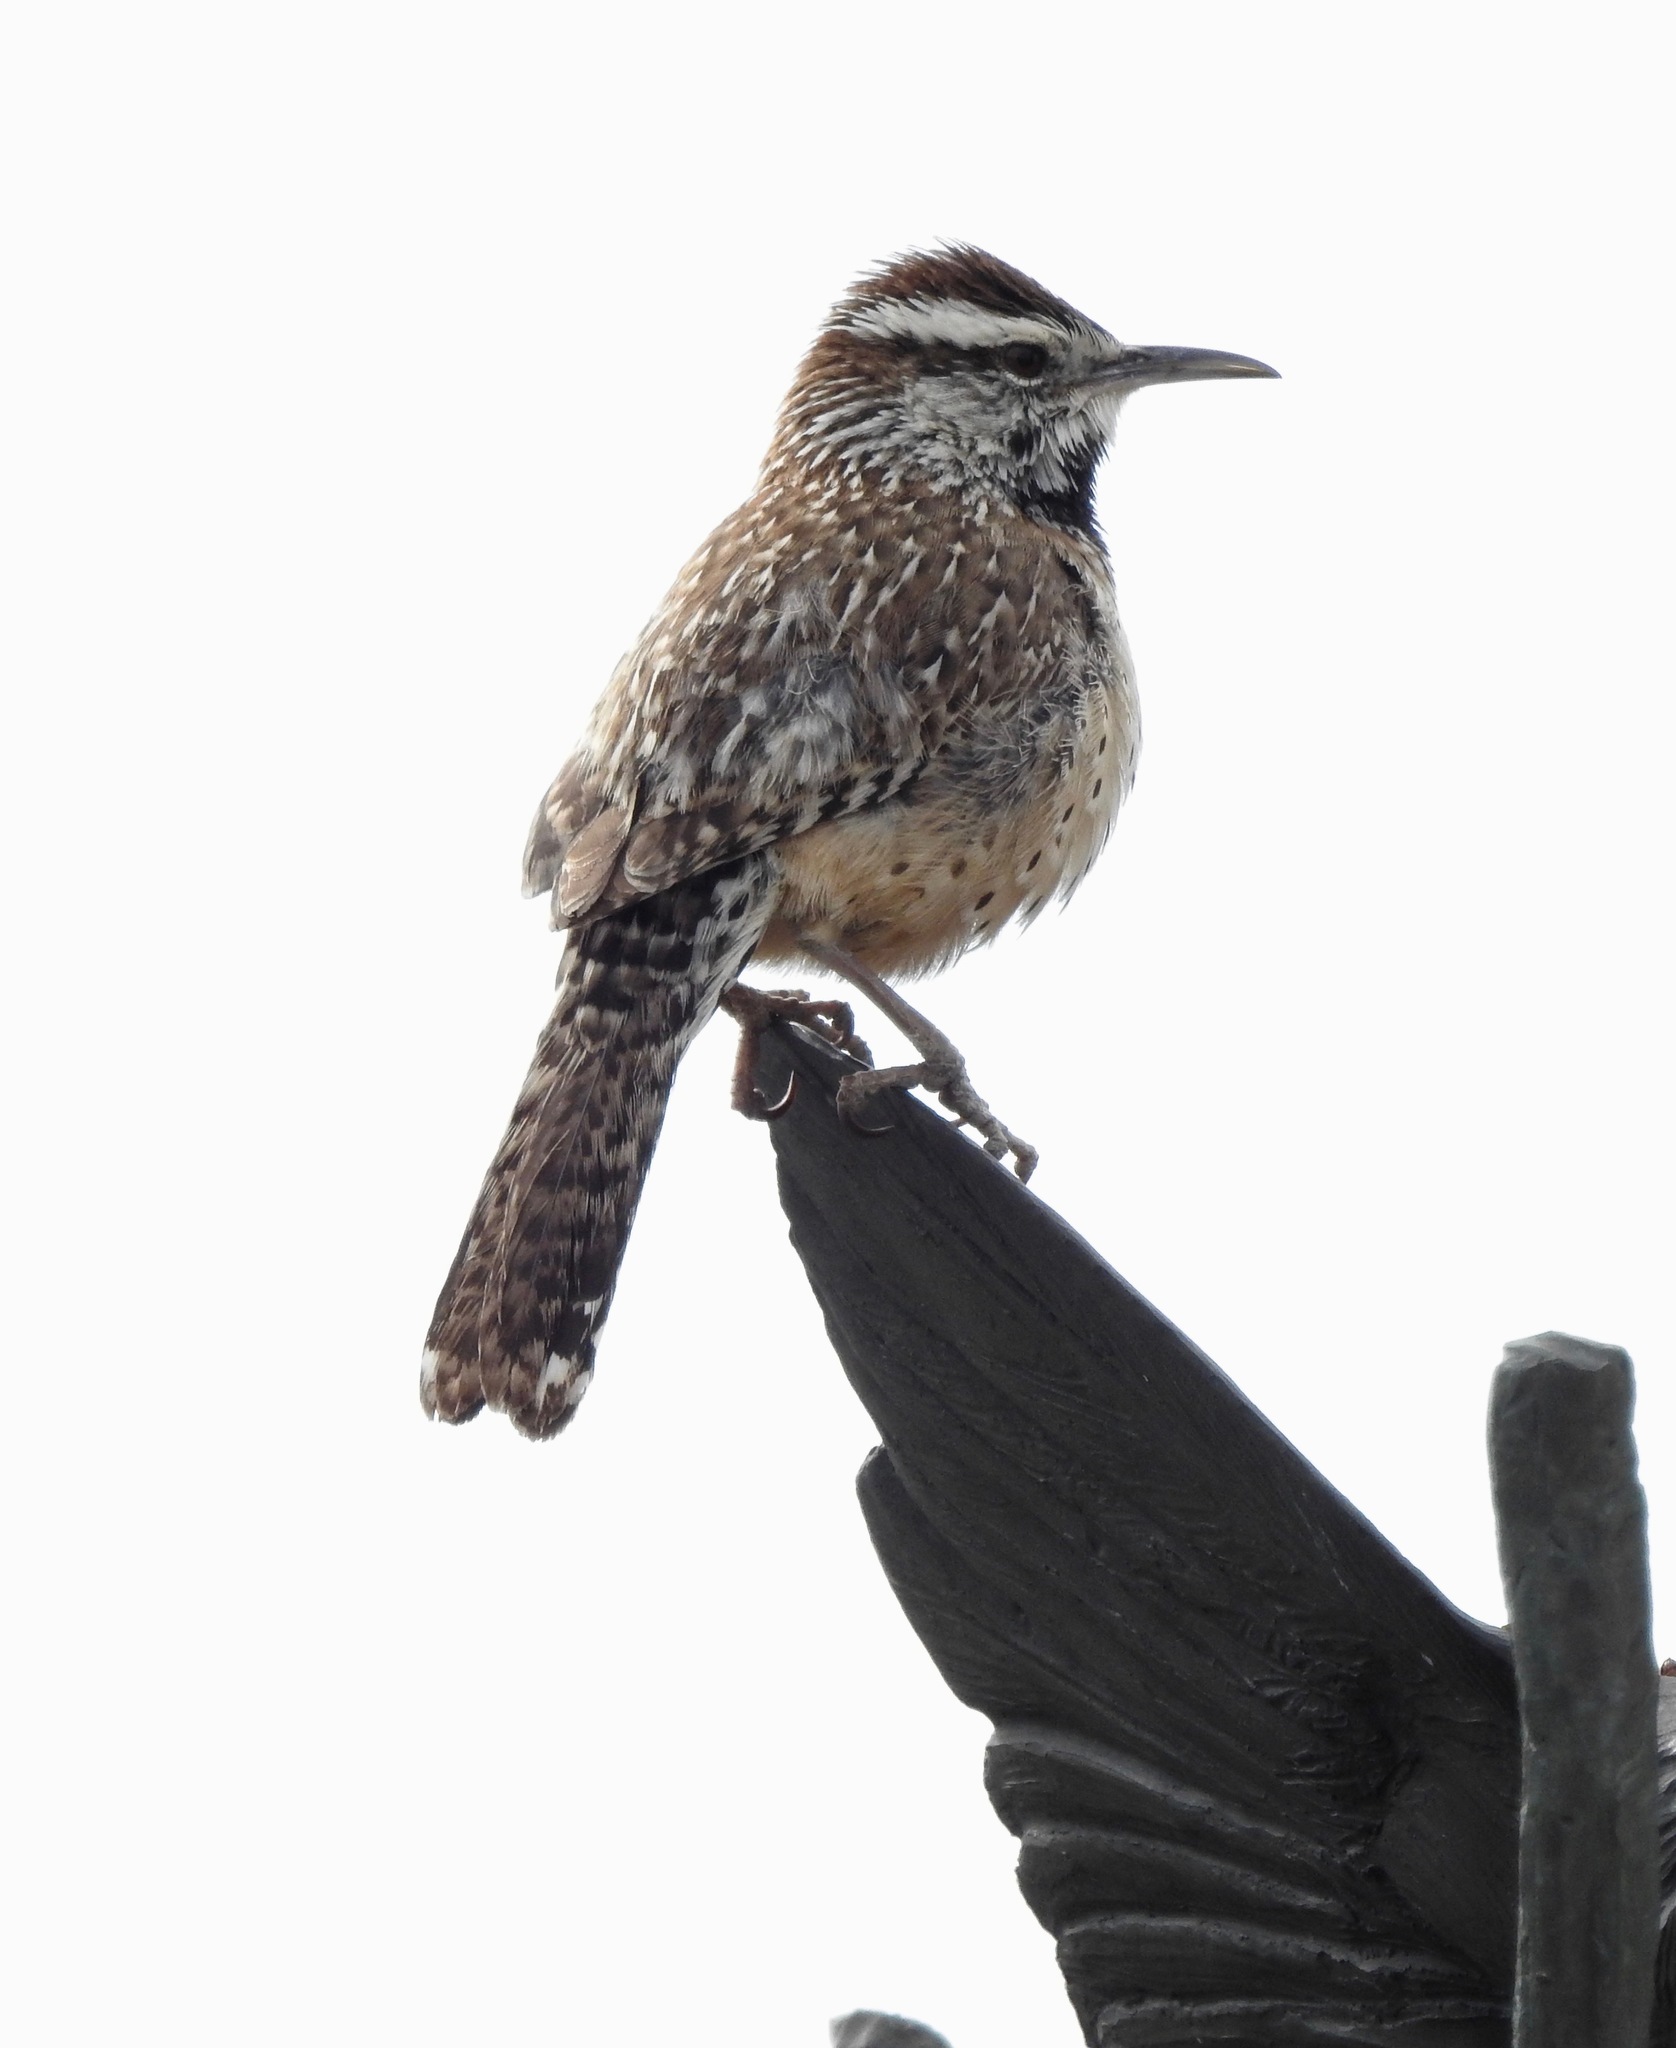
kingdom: Animalia
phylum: Chordata
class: Aves
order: Passeriformes
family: Troglodytidae
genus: Campylorhynchus
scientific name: Campylorhynchus brunneicapillus
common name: Cactus wren
